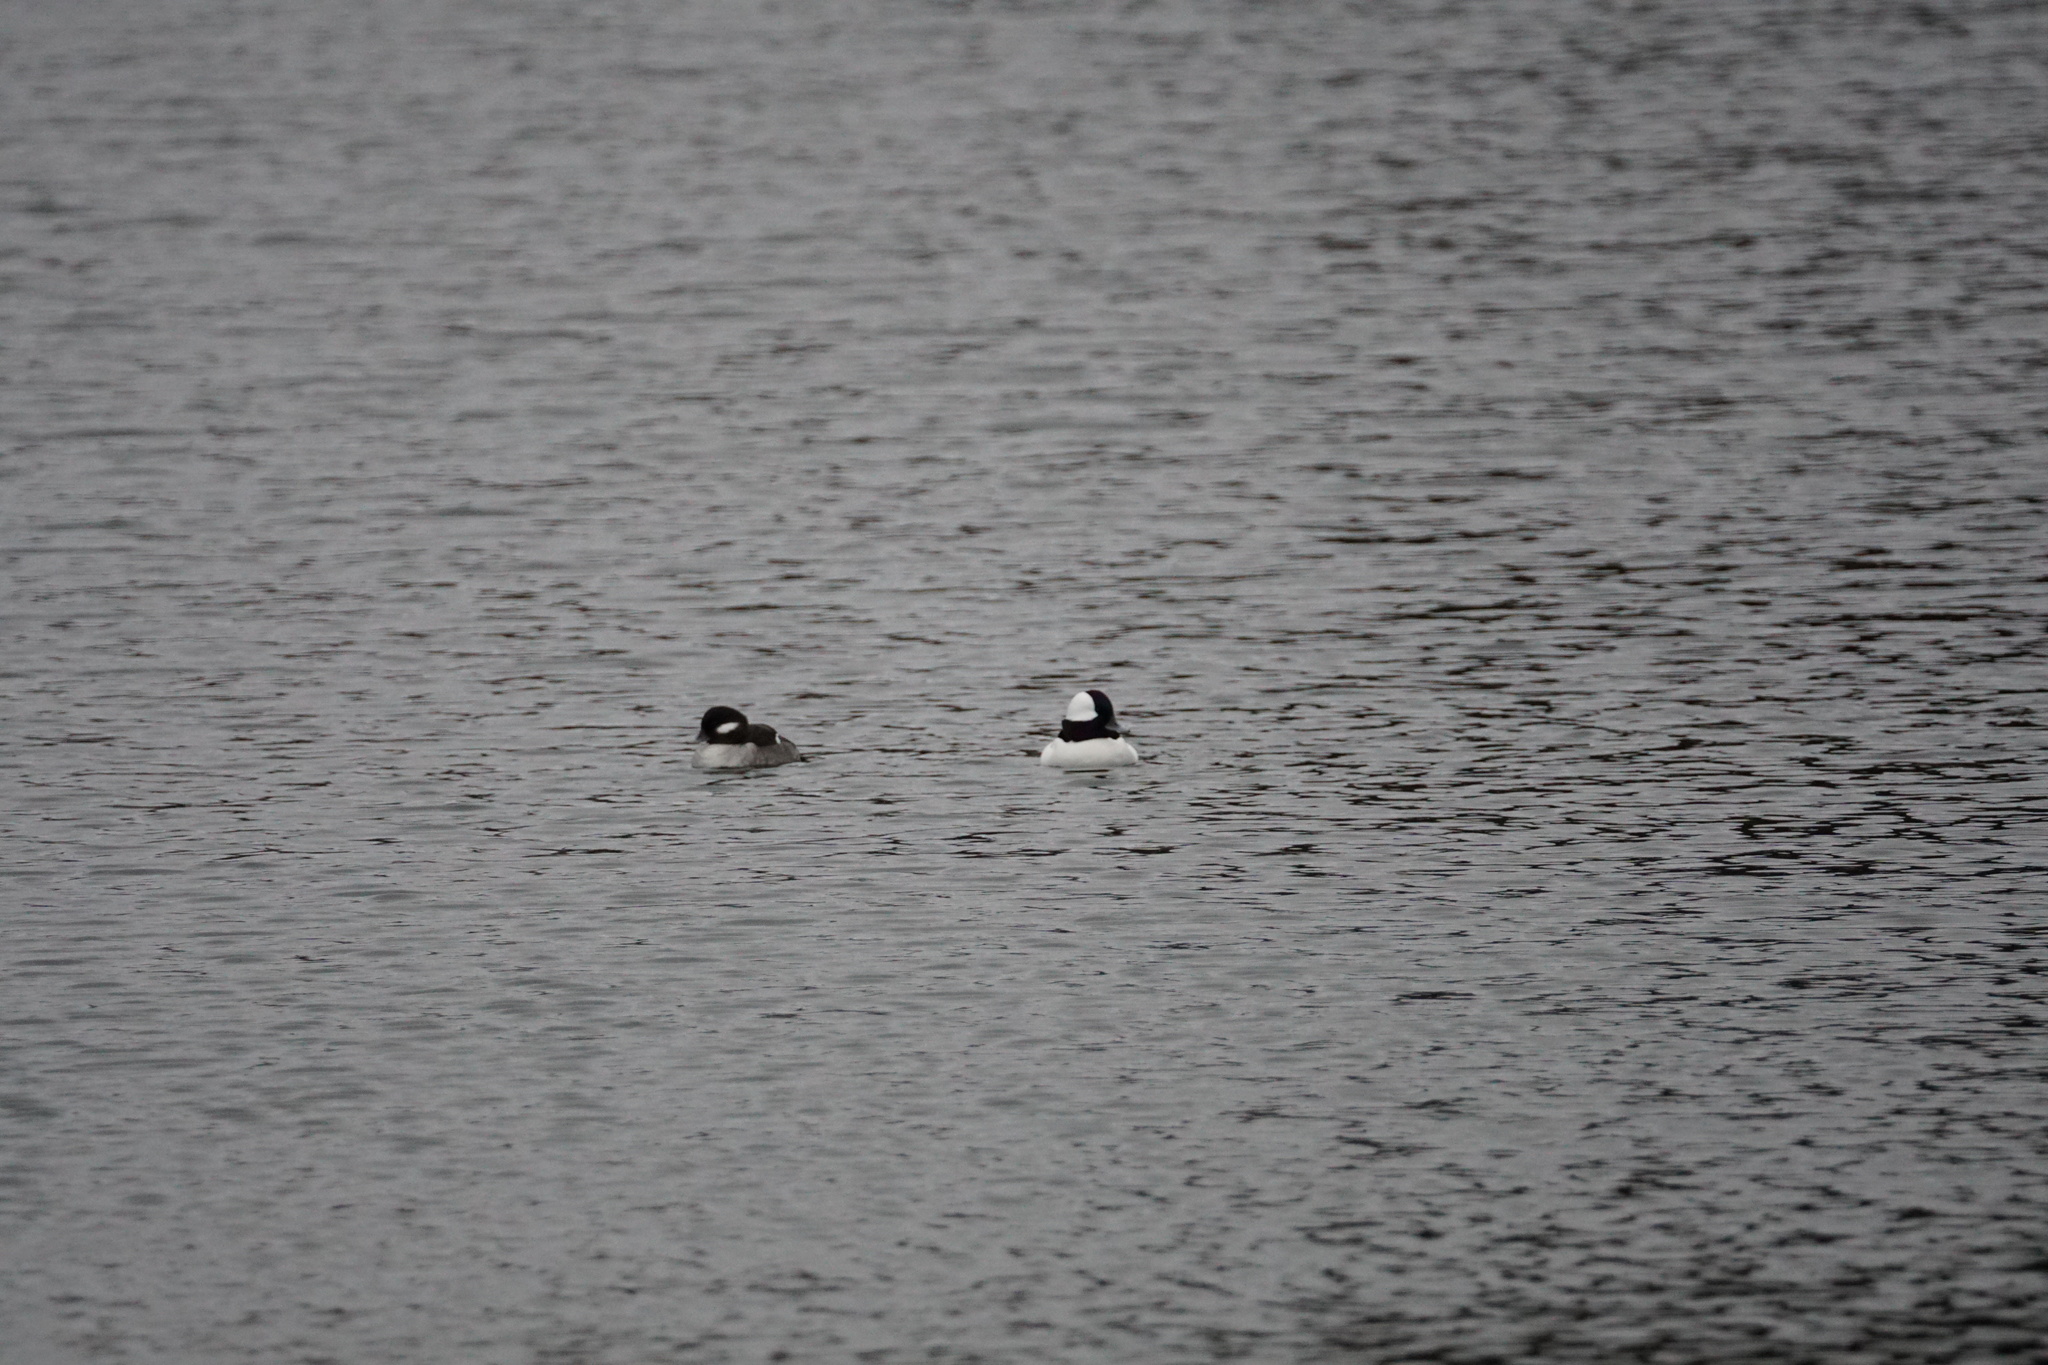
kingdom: Animalia
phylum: Chordata
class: Aves
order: Anseriformes
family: Anatidae
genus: Bucephala
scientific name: Bucephala albeola
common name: Bufflehead
